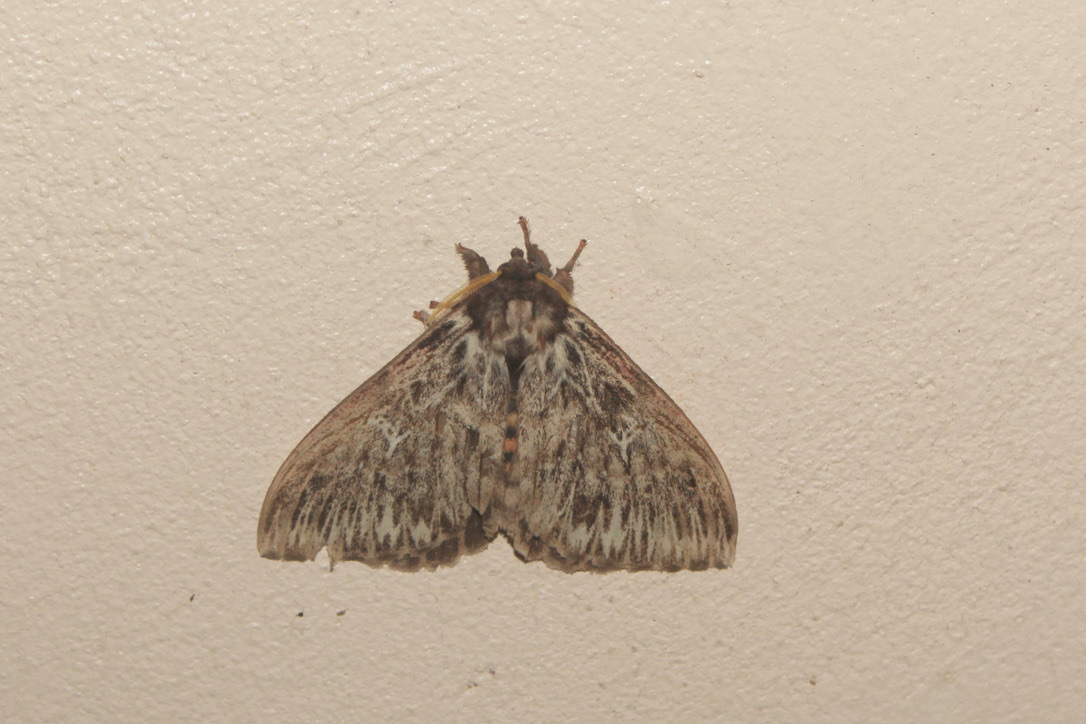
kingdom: Animalia
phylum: Arthropoda
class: Insecta
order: Lepidoptera
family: Saturniidae
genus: Dirphia
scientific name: Dirphia radiata
